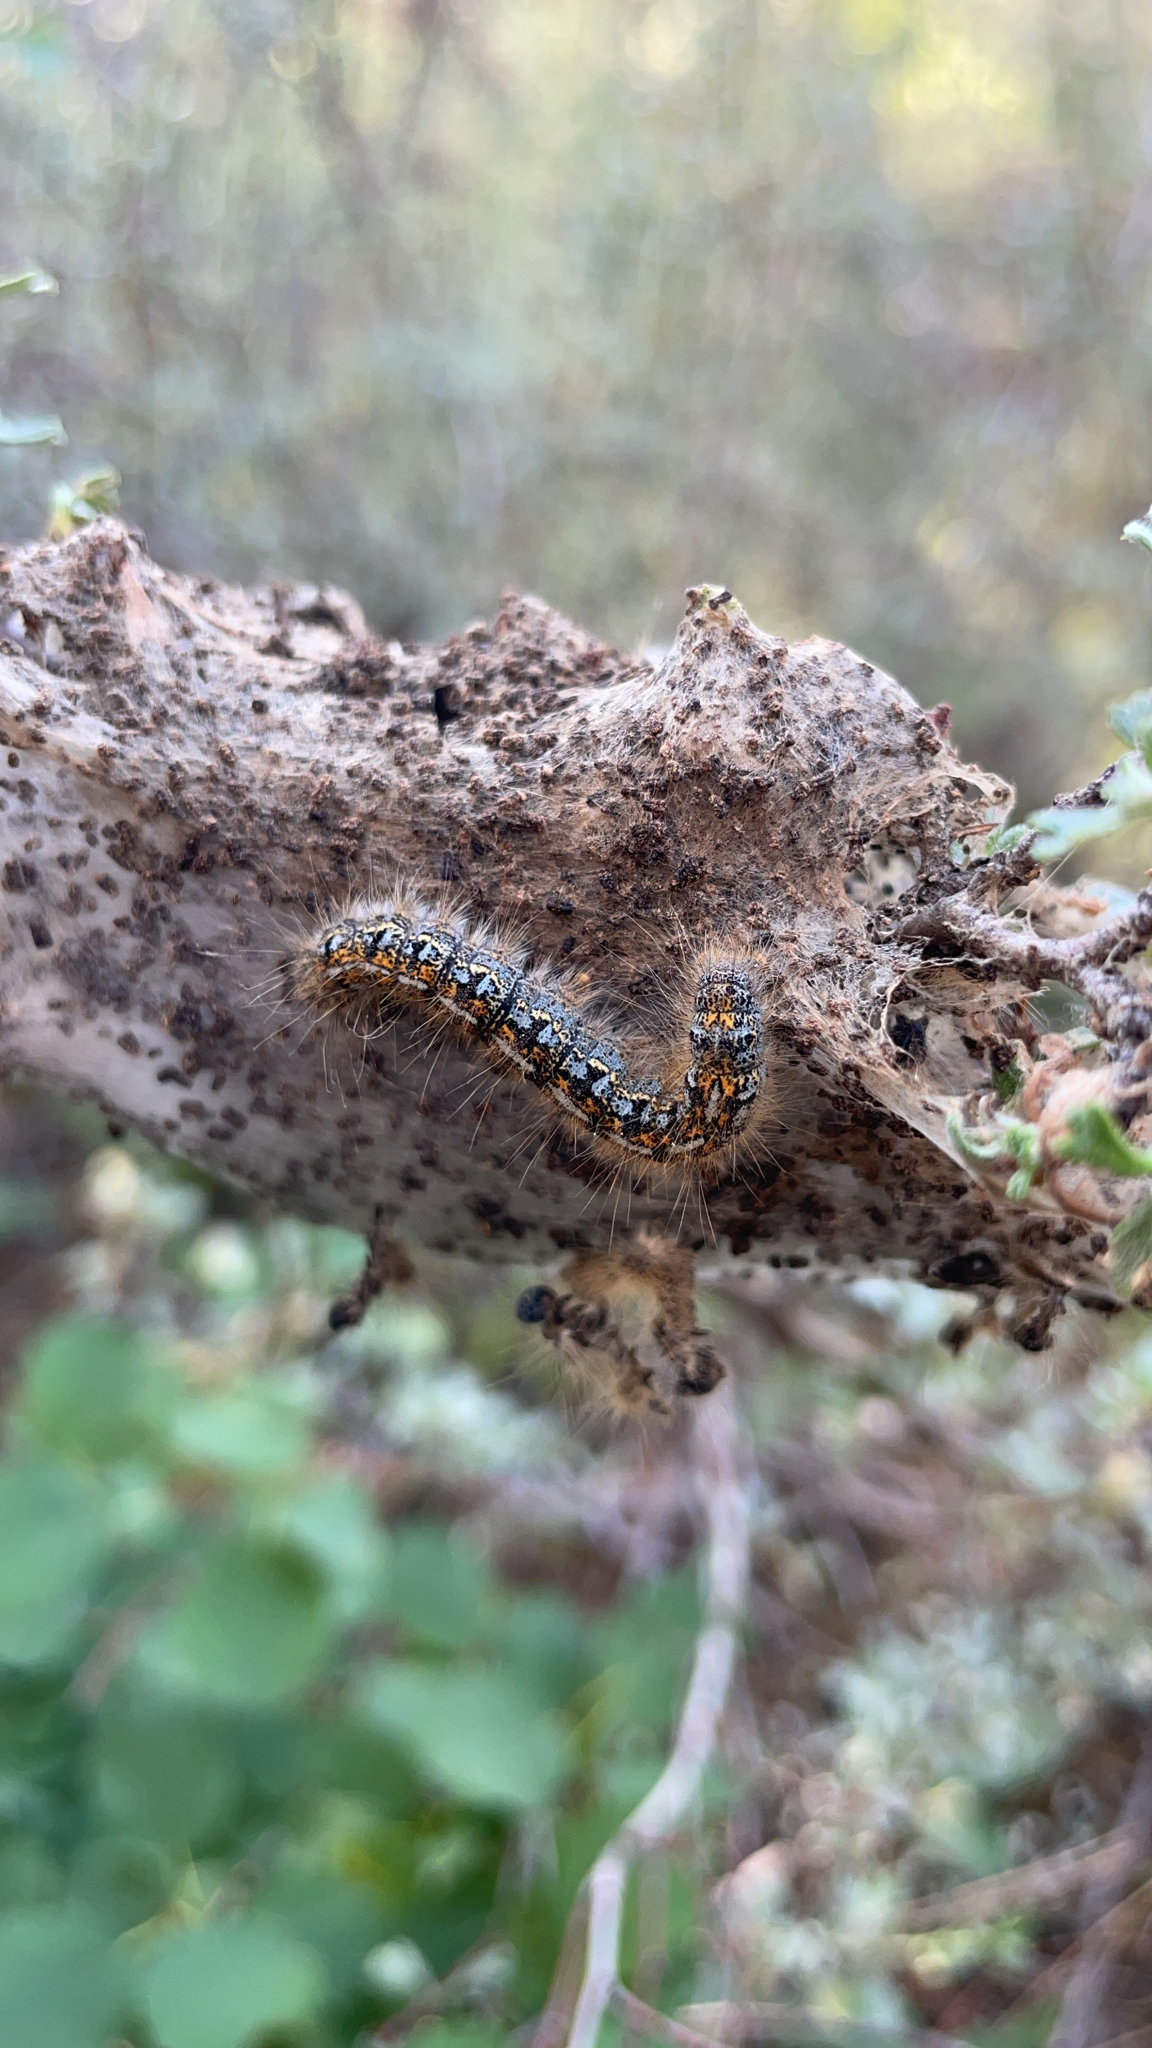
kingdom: Animalia
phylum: Arthropoda
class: Insecta
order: Lepidoptera
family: Lasiocampidae
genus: Malacosoma
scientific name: Malacosoma californica
